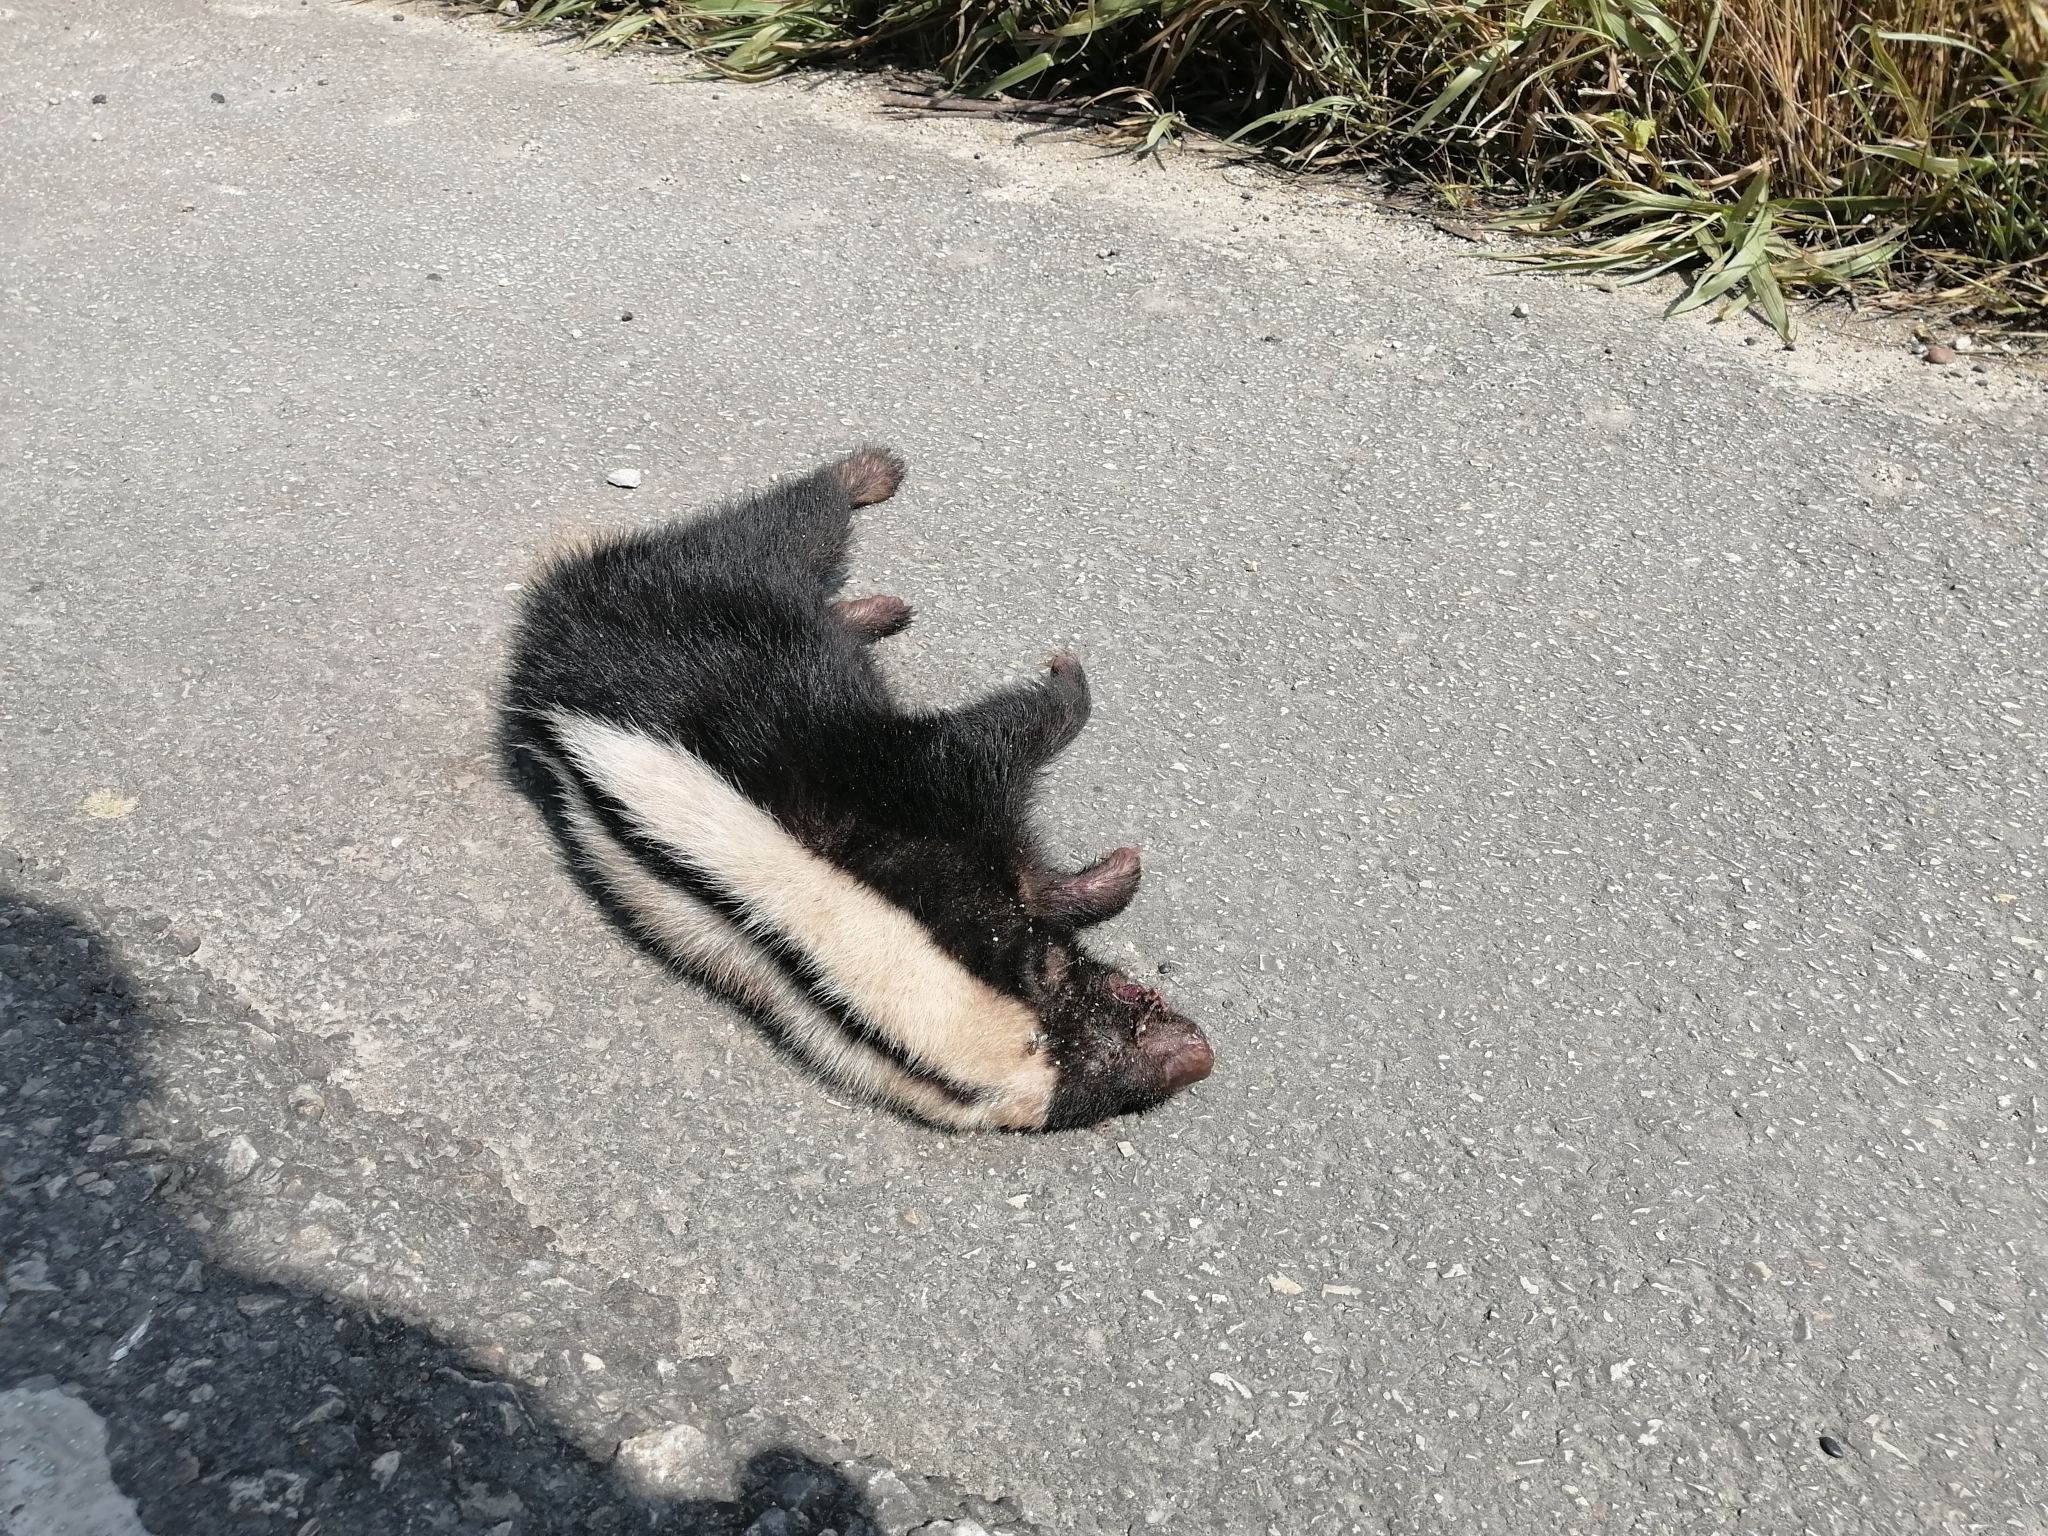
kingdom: Animalia
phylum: Chordata
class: Mammalia
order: Carnivora
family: Mephitidae
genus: Conepatus
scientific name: Conepatus semistriatus
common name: Striped hog-nosed skunk
